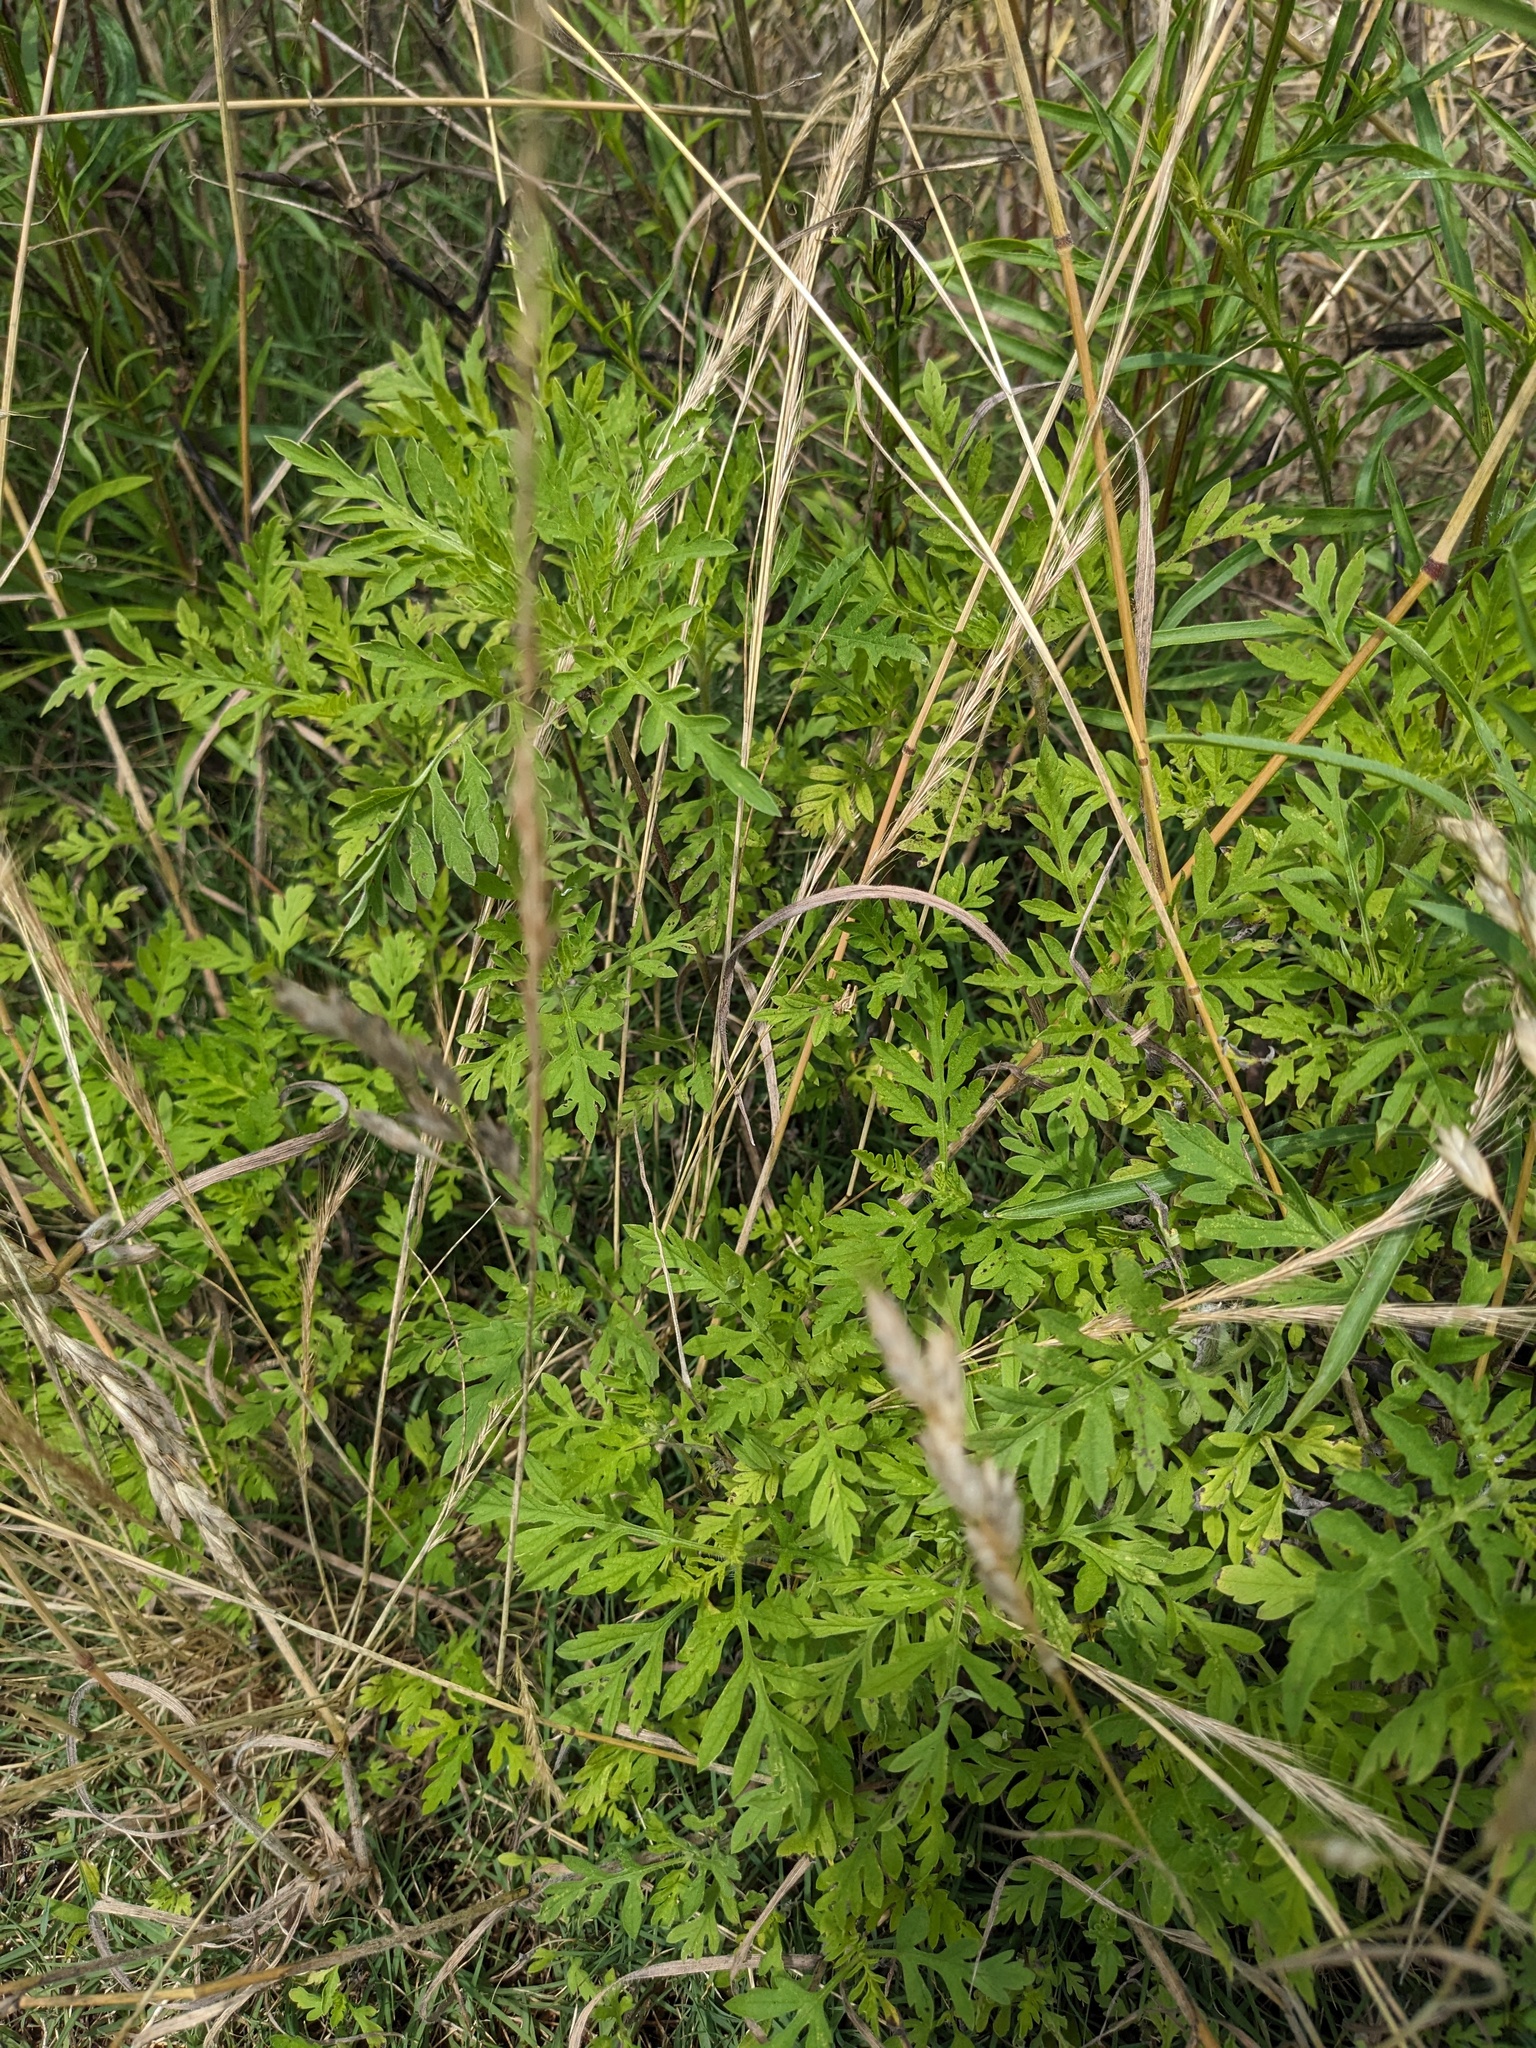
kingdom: Plantae
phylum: Tracheophyta
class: Magnoliopsida
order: Asterales
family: Asteraceae
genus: Ambrosia
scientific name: Ambrosia artemisiifolia
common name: Annual ragweed
